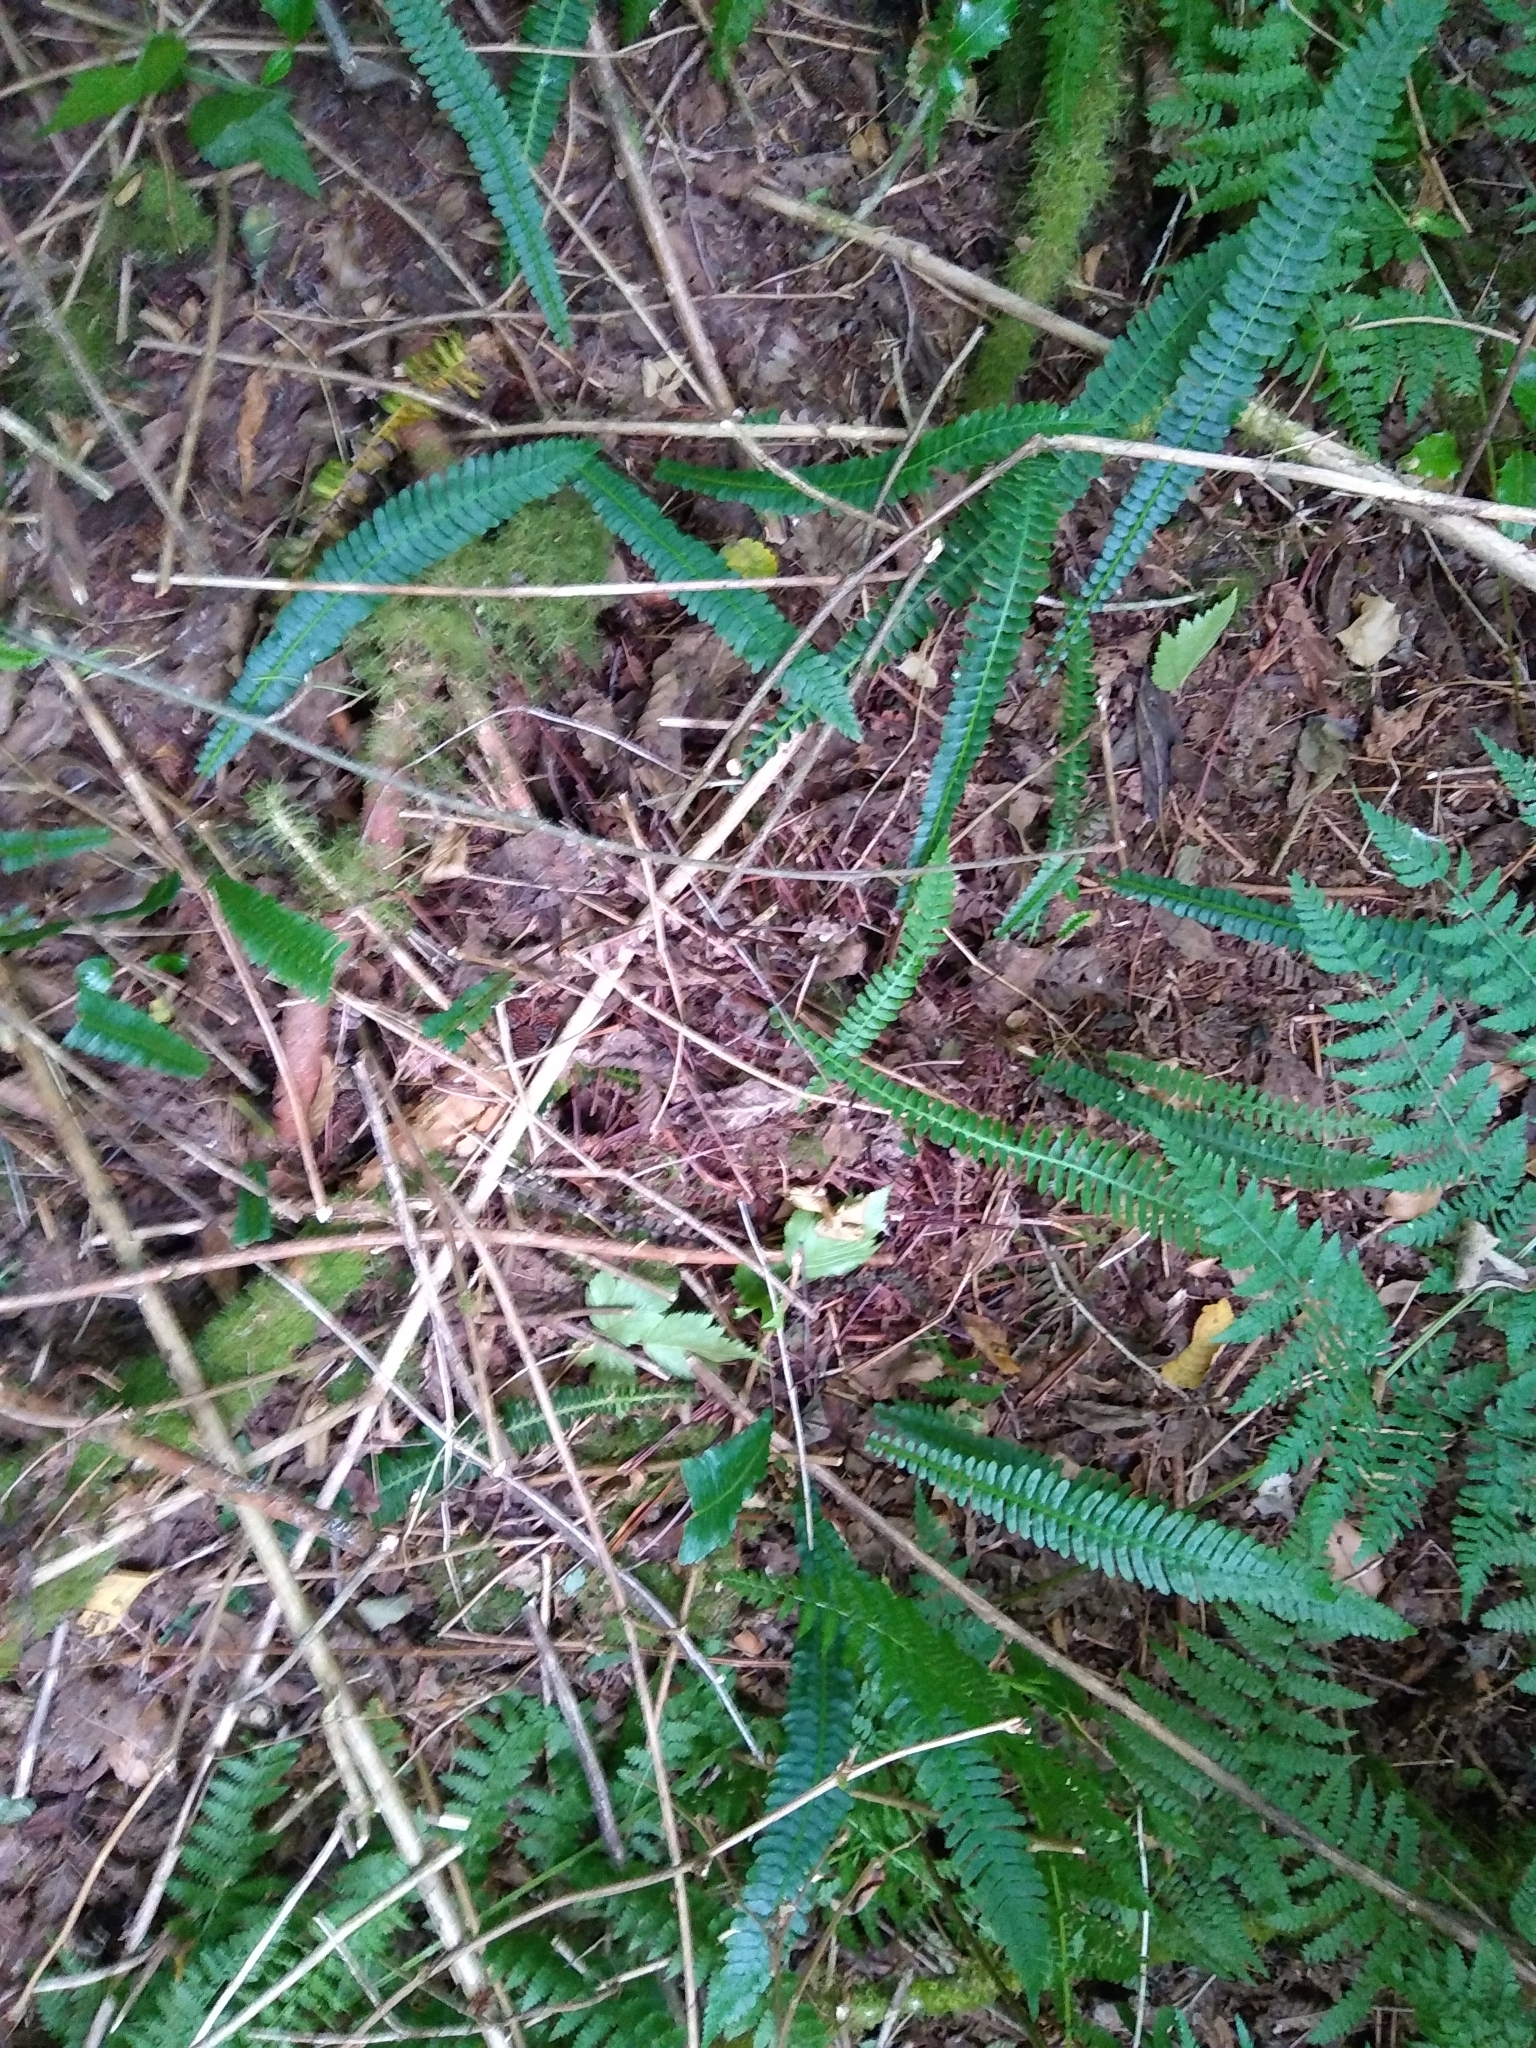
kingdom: Plantae
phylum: Tracheophyta
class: Polypodiopsida
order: Polypodiales
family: Blechnaceae
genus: Struthiopteris
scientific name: Struthiopteris spicant
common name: Deer fern
